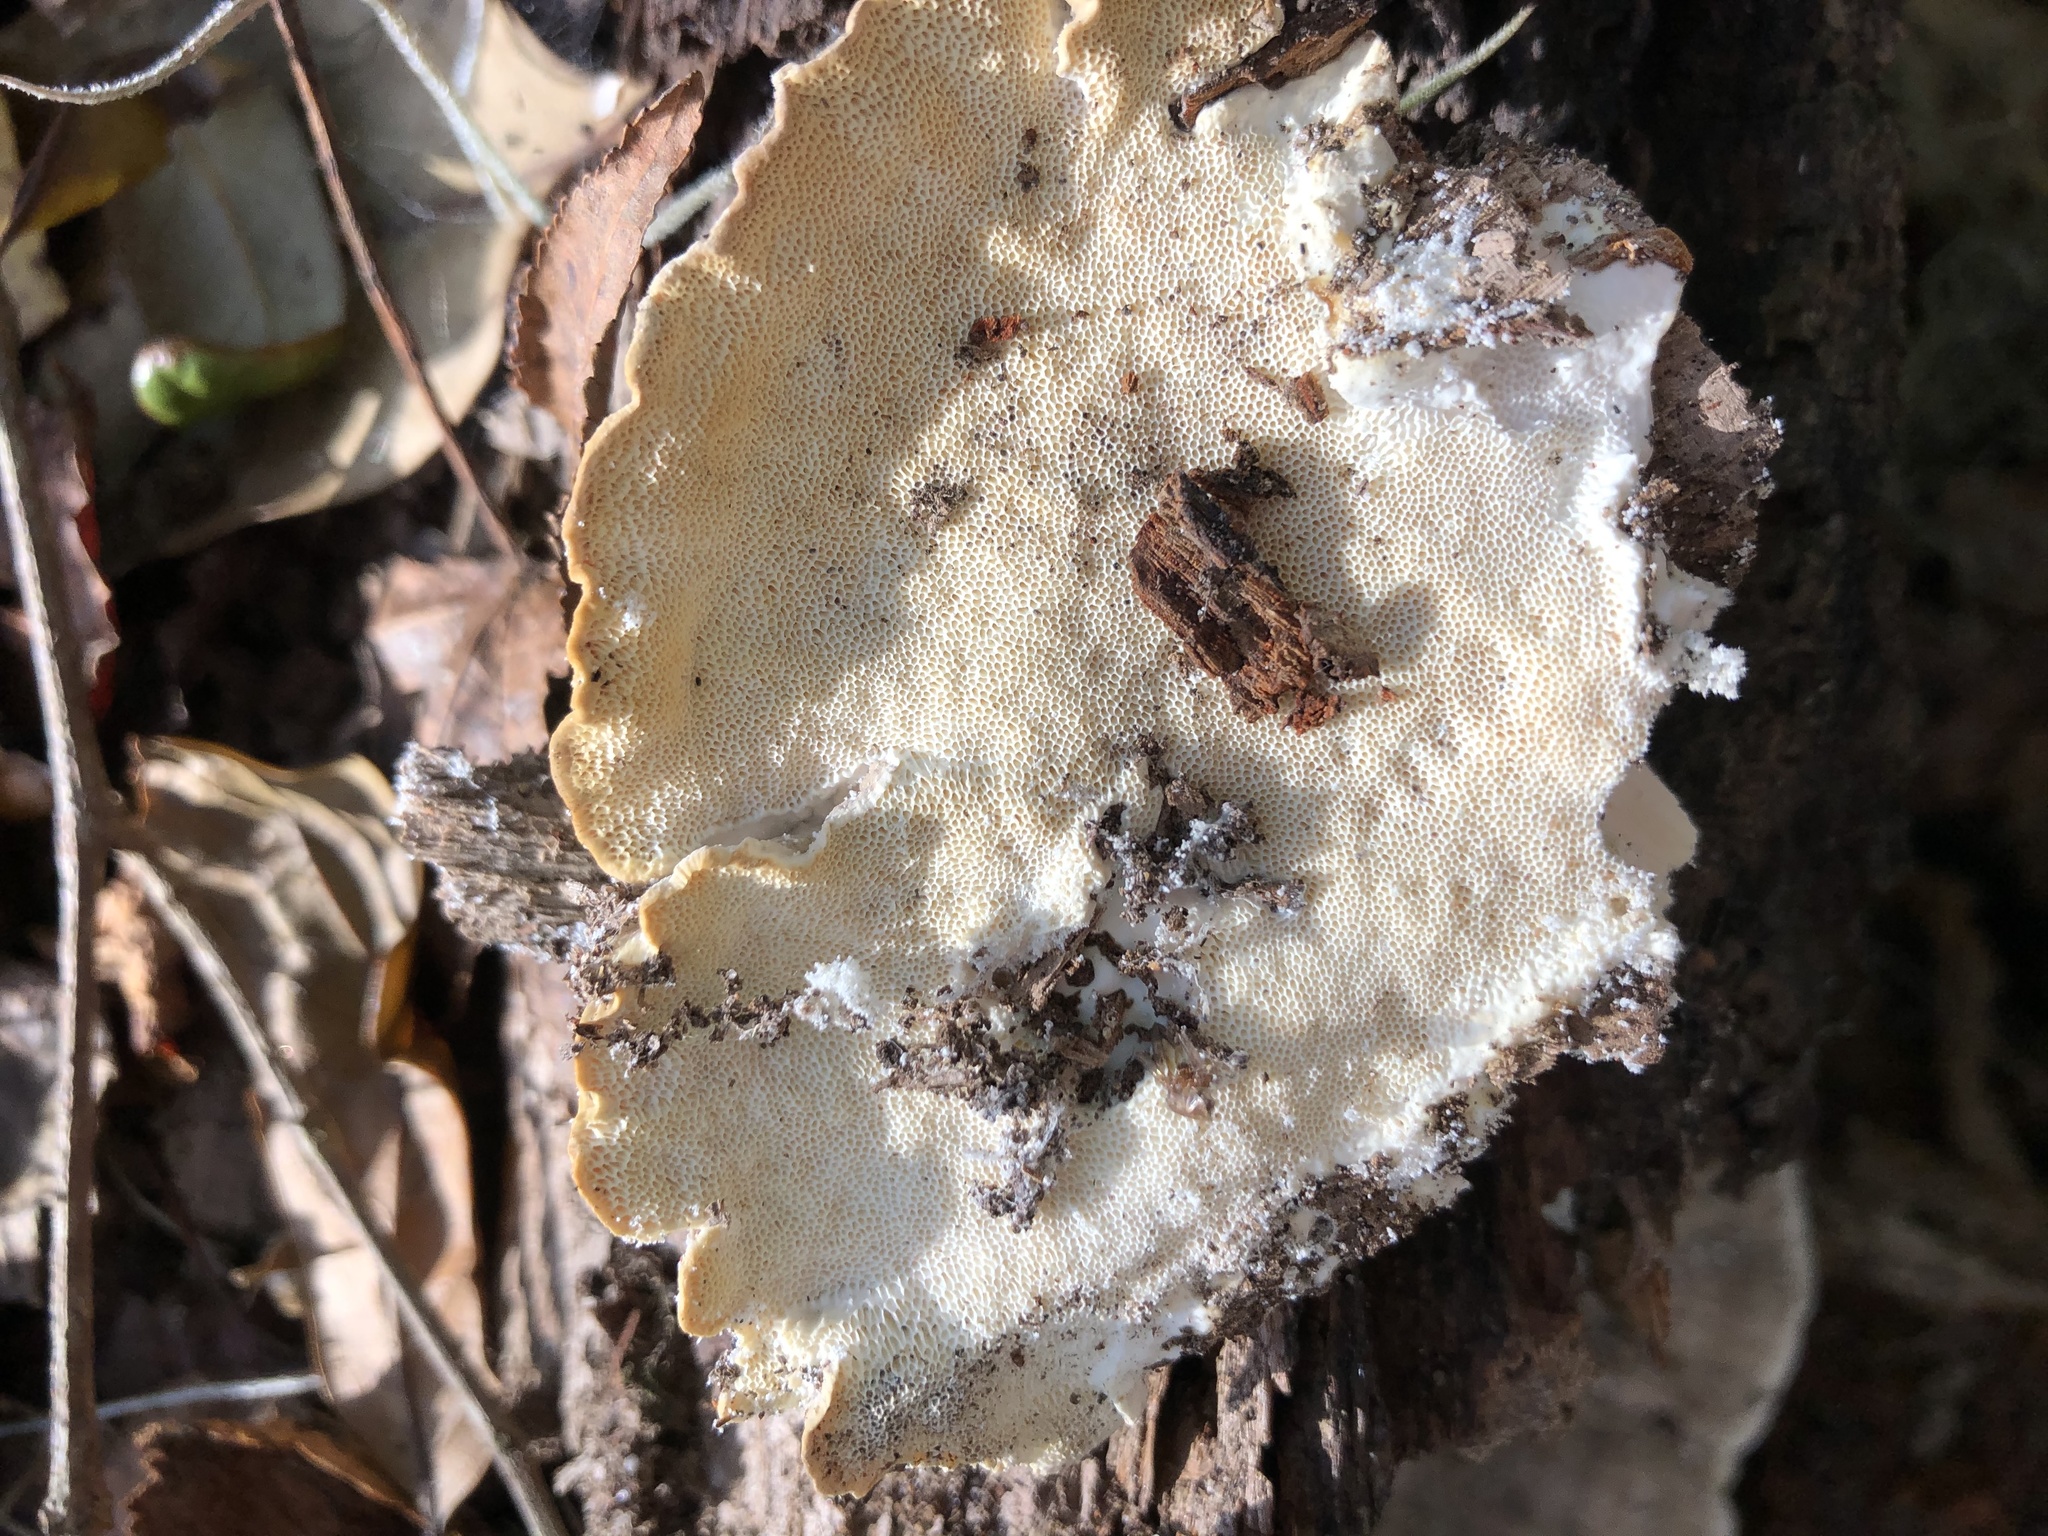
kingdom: Fungi
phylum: Basidiomycota
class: Agaricomycetes
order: Polyporales
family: Polyporaceae
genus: Trametes
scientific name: Trametes lactinea
